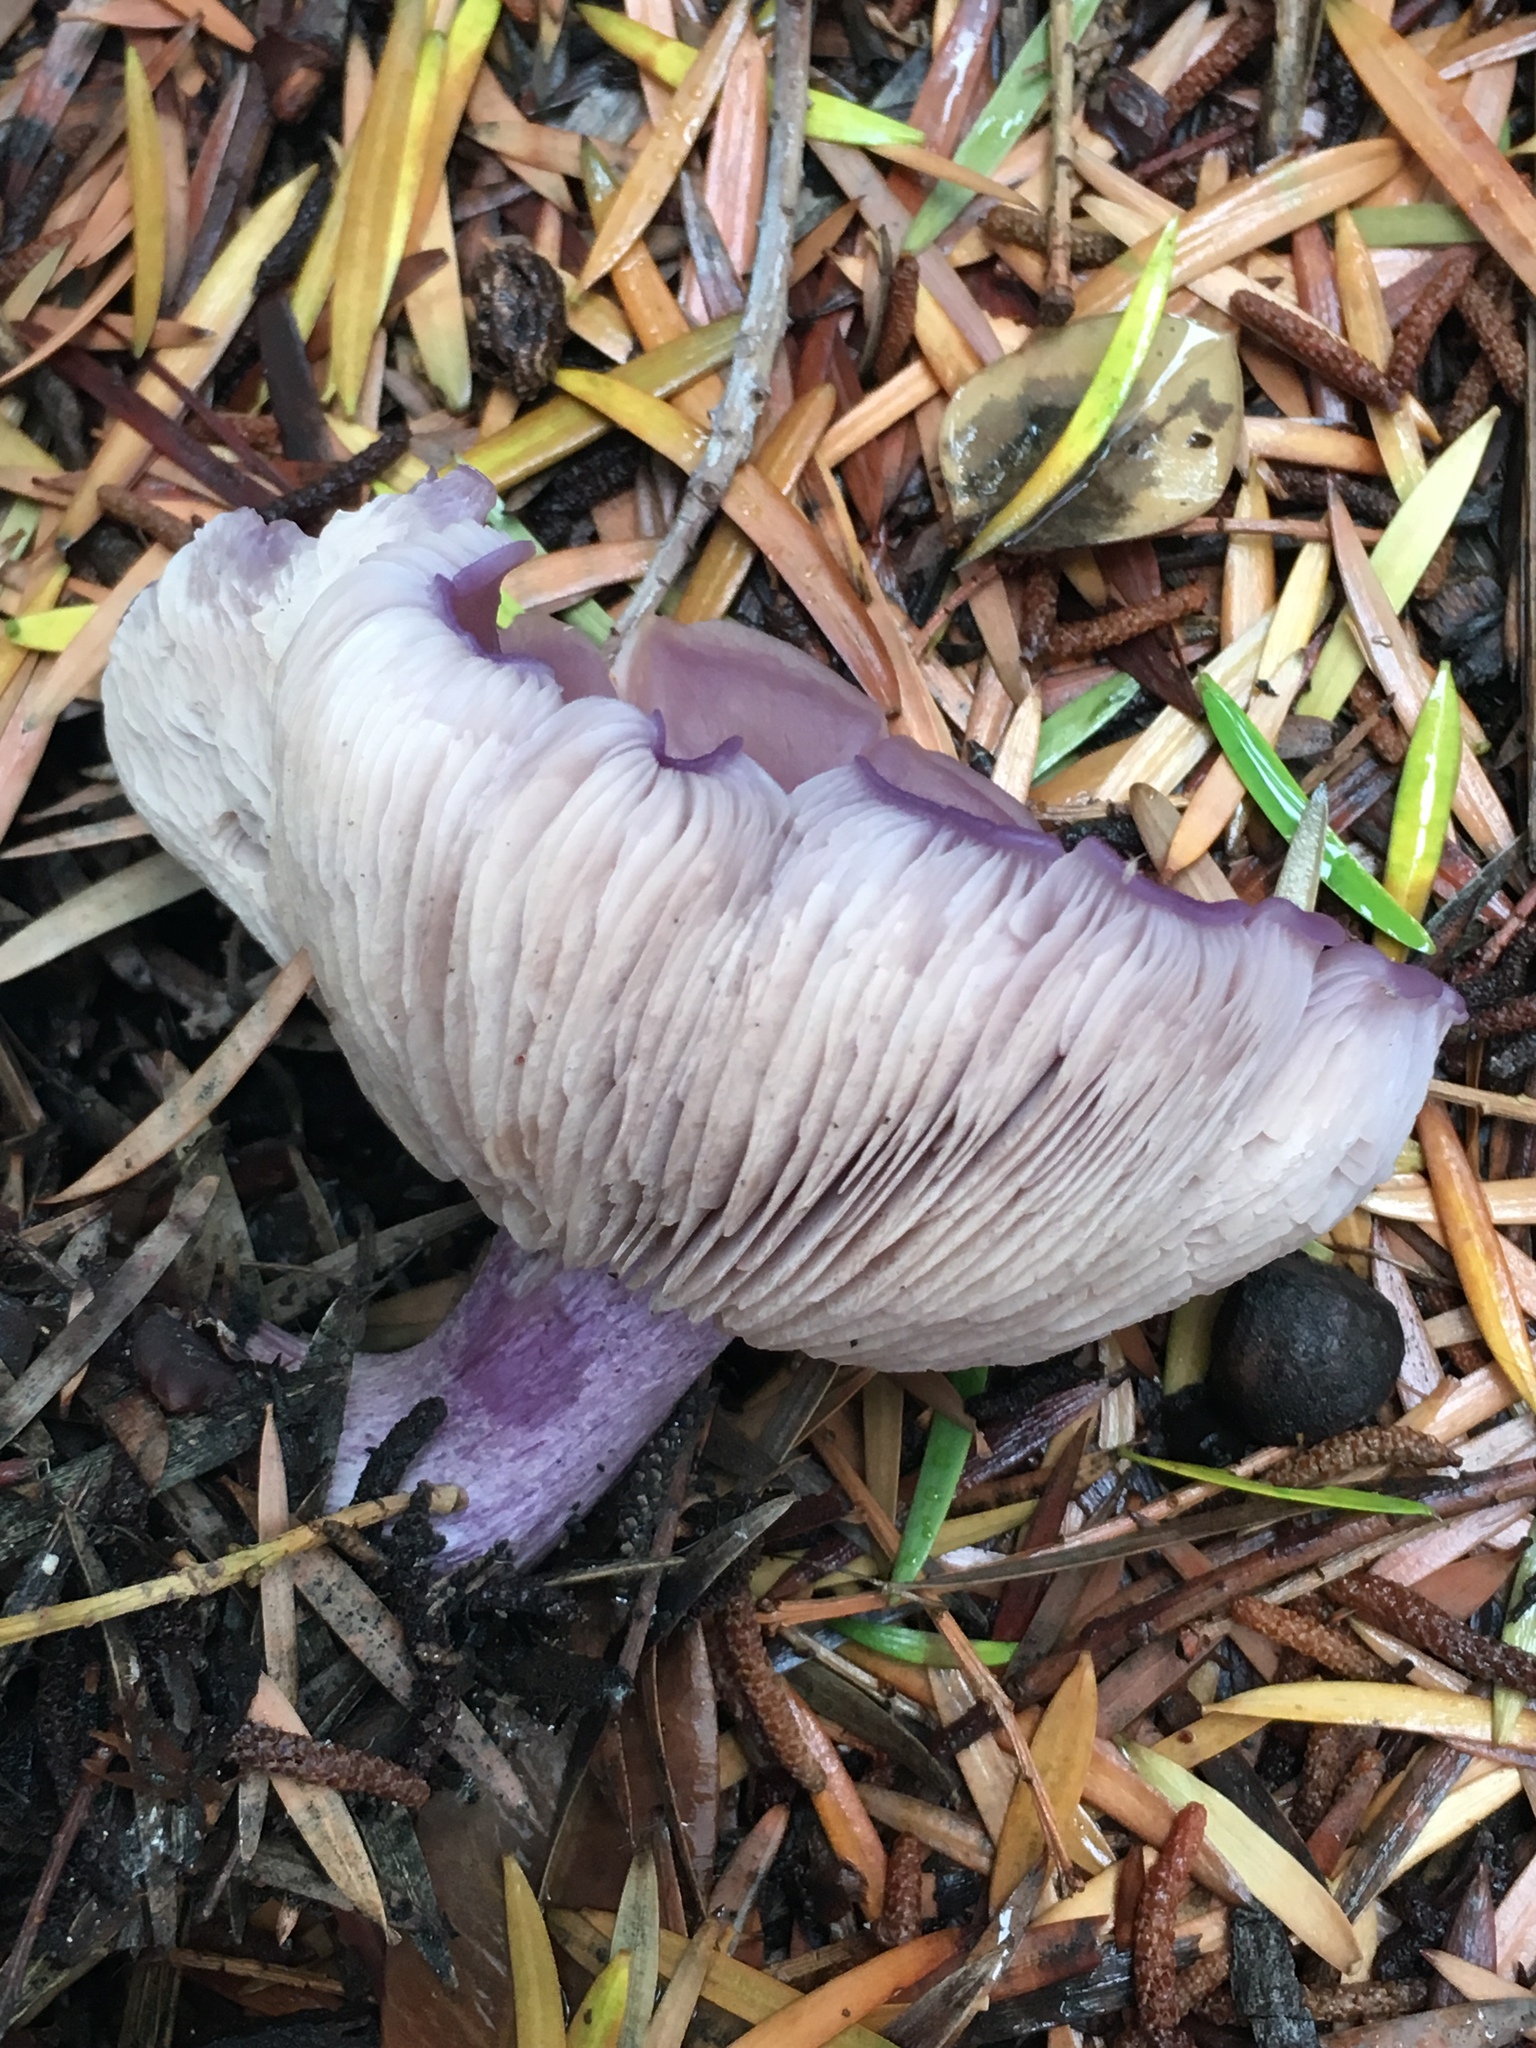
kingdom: Fungi
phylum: Basidiomycota
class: Agaricomycetes
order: Agaricales
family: Tricholomataceae
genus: Collybia
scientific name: Collybia
